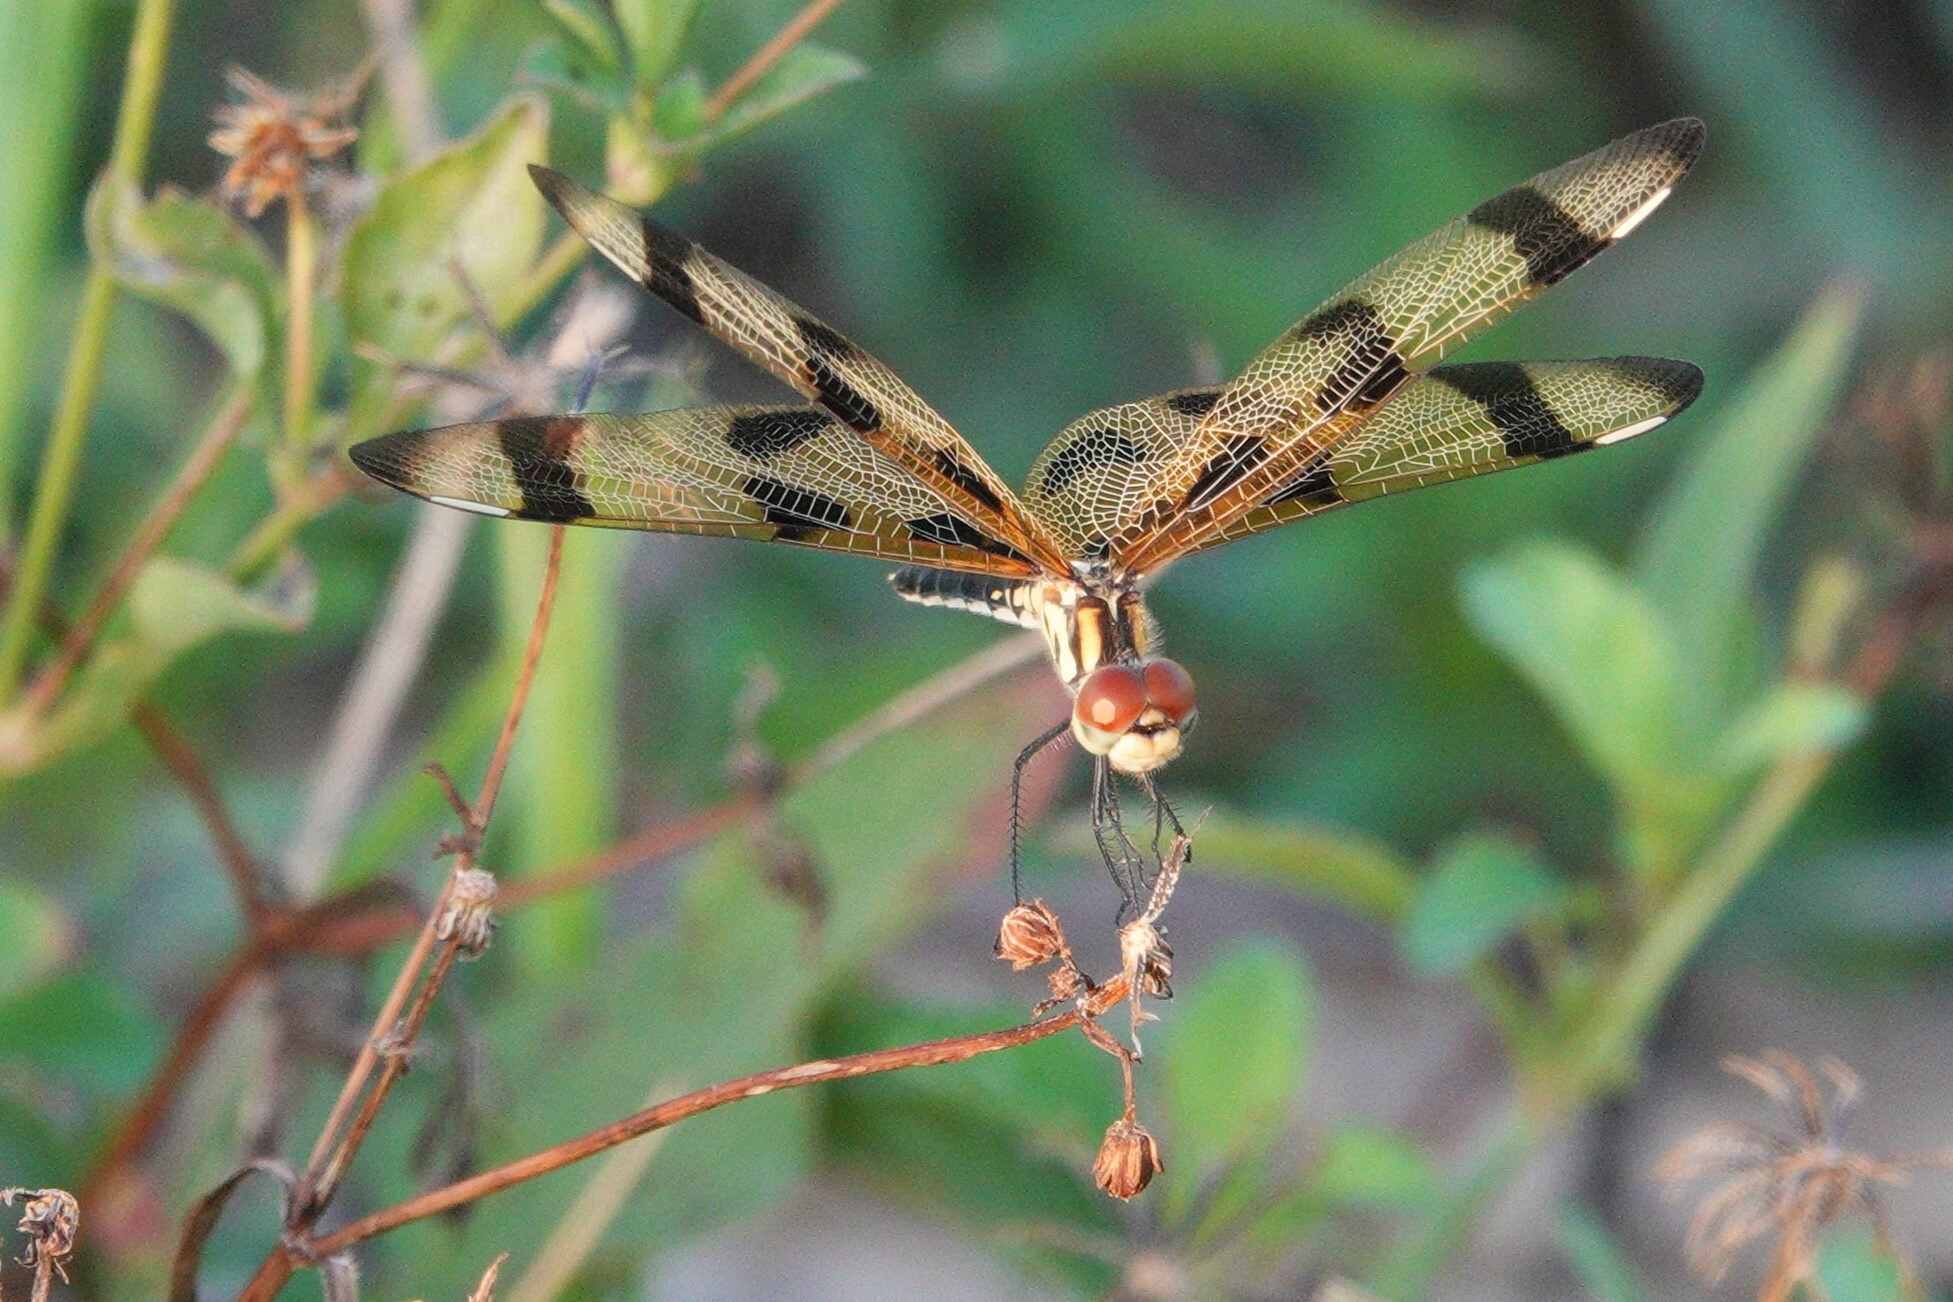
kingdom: Animalia
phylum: Arthropoda
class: Insecta
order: Odonata
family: Libellulidae
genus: Celithemis
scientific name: Celithemis eponina
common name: Halloween pennant
